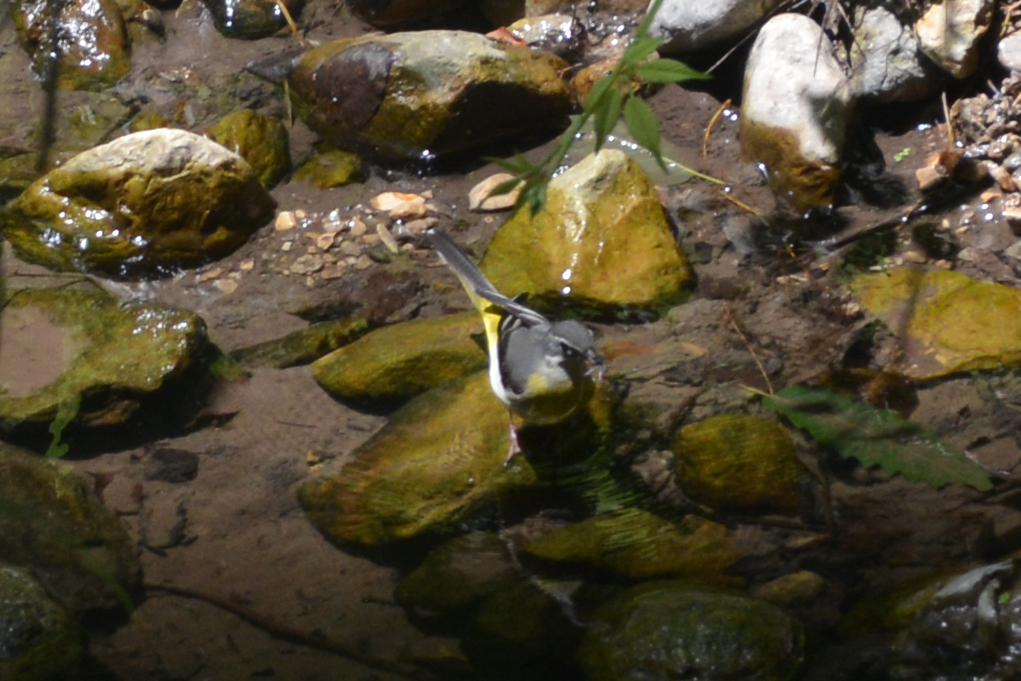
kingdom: Animalia
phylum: Chordata
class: Aves
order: Passeriformes
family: Motacillidae
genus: Motacilla
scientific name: Motacilla cinerea
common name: Grey wagtail
